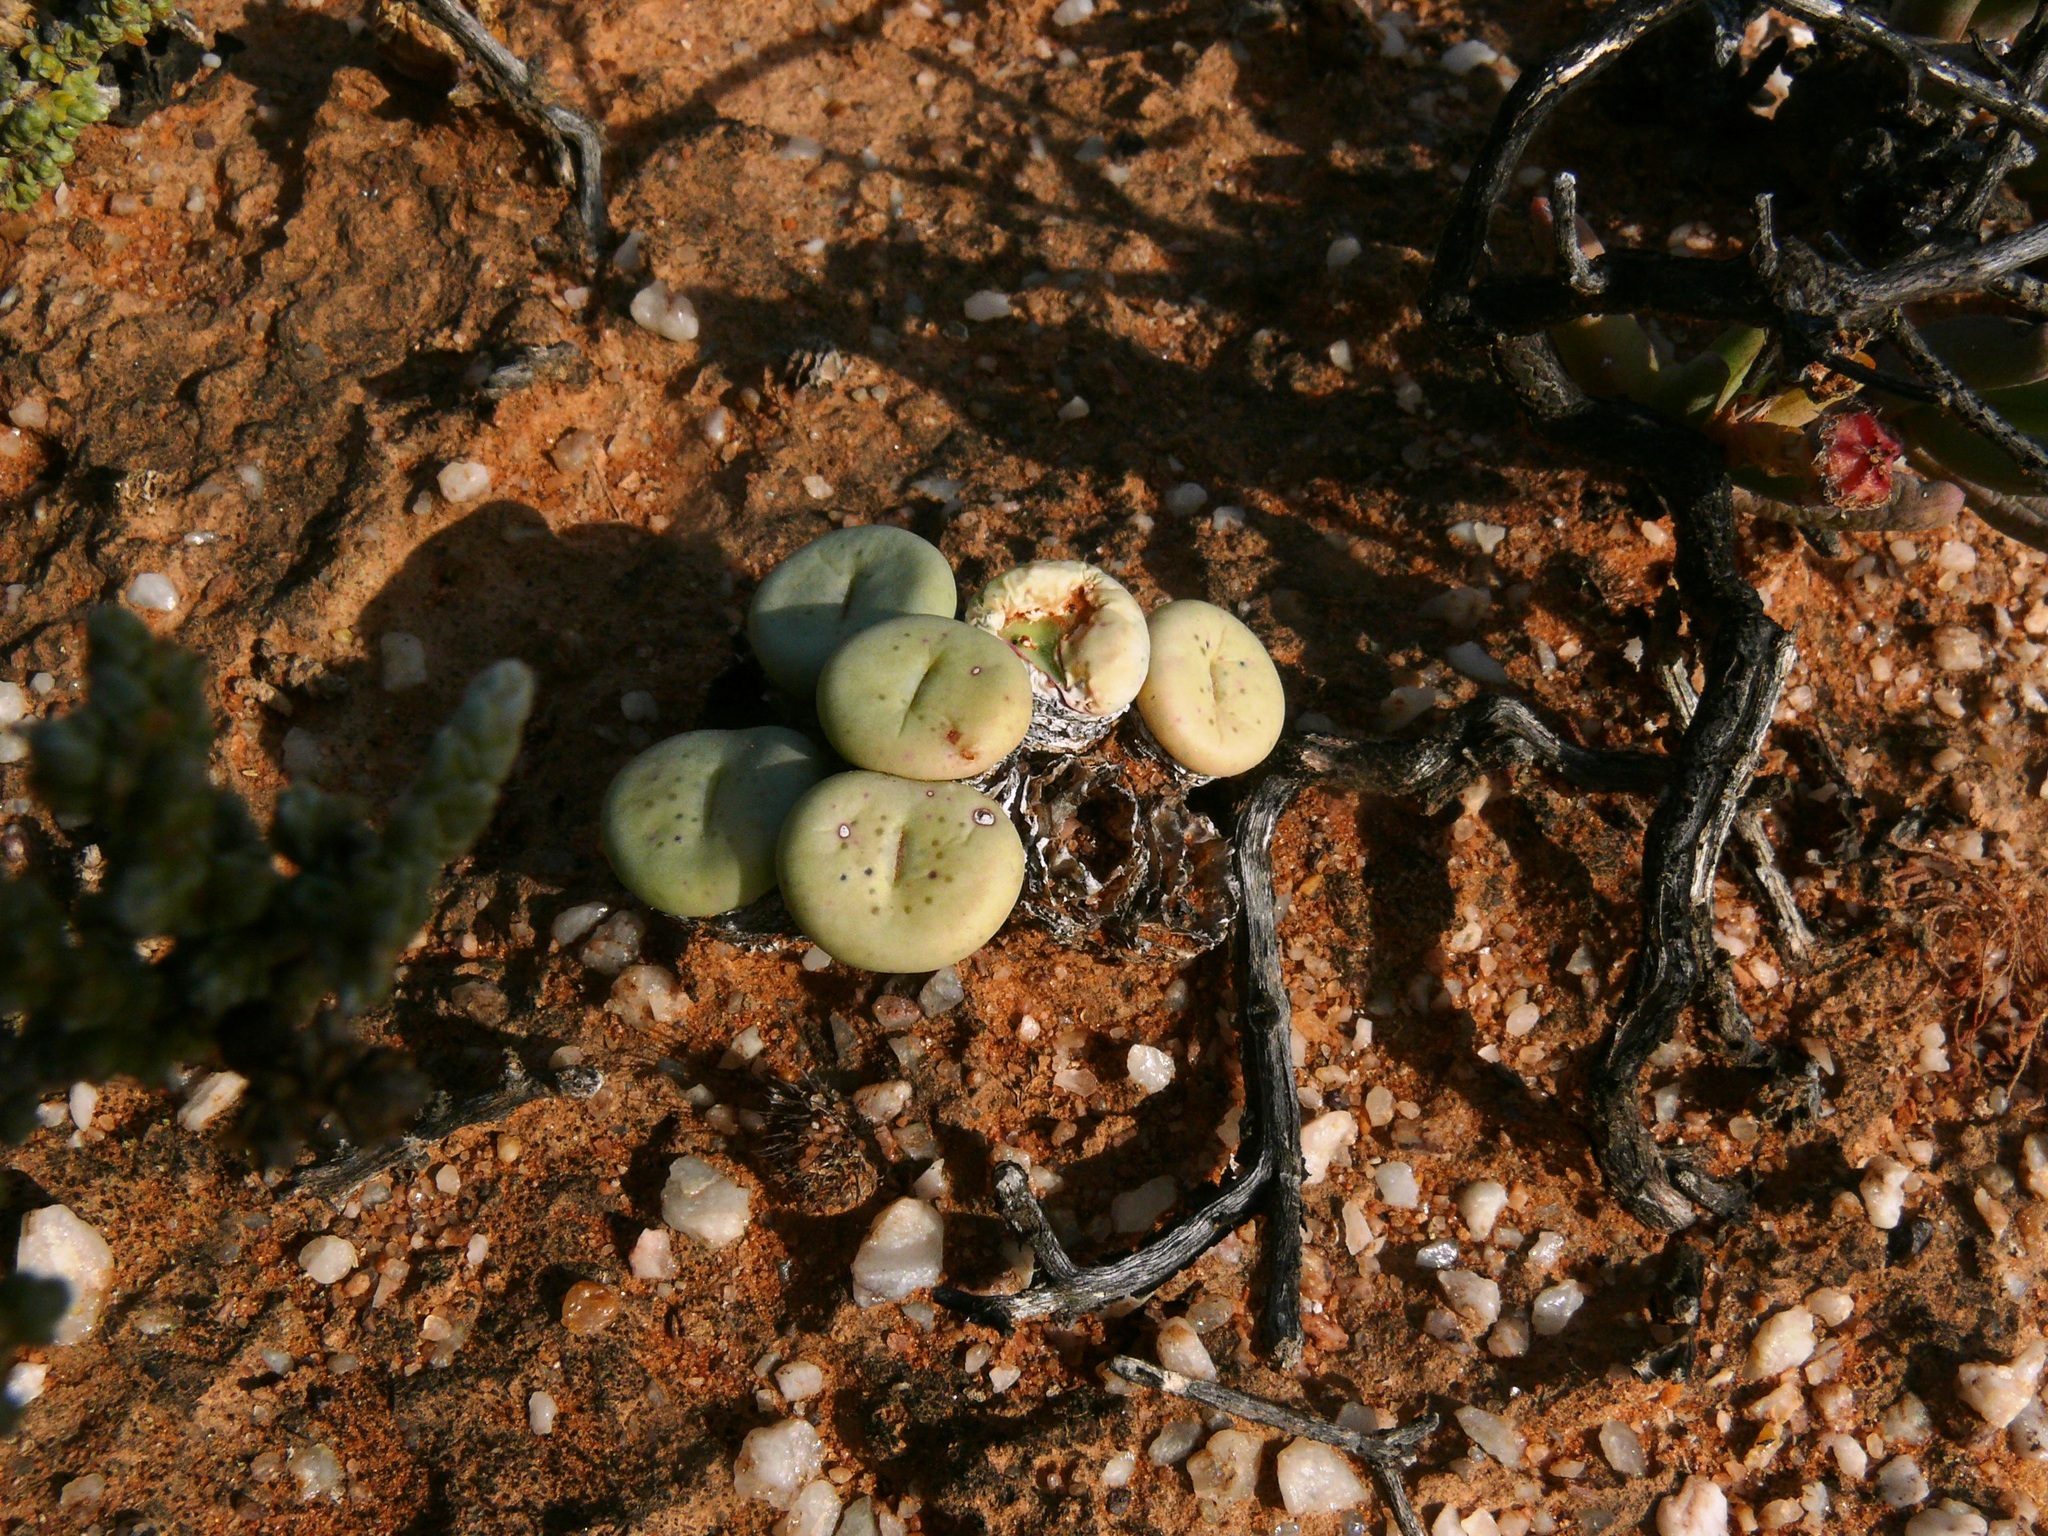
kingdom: Plantae
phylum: Tracheophyta
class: Magnoliopsida
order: Caryophyllales
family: Aizoaceae
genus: Conophytum
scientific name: Conophytum minutum
